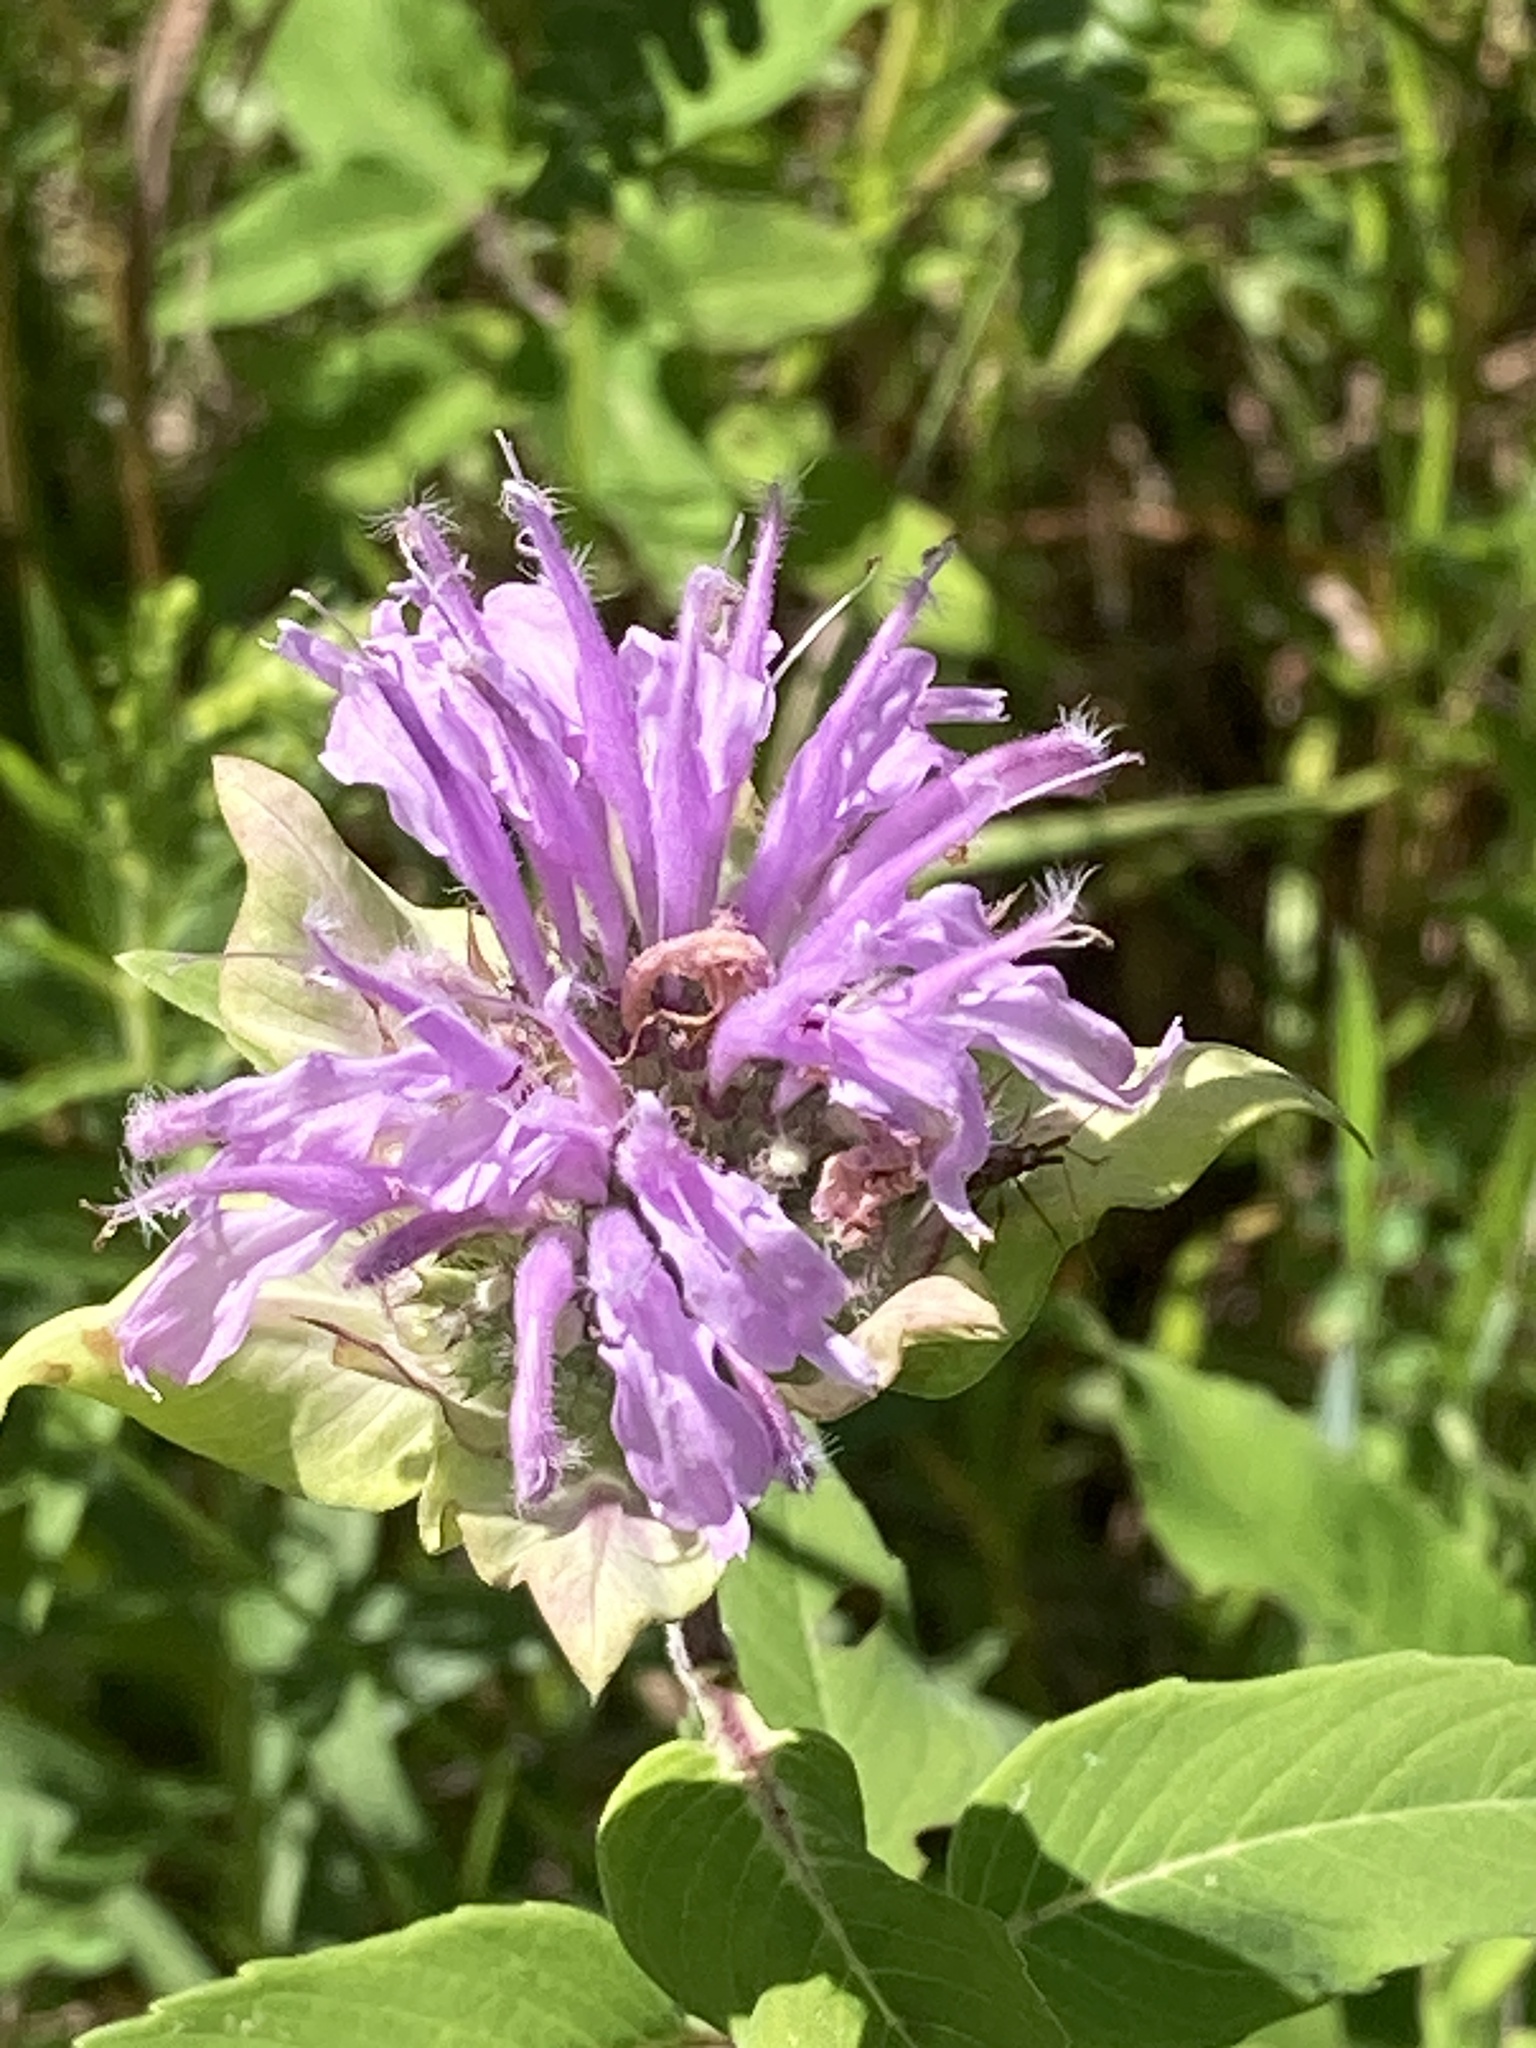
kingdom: Plantae
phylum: Tracheophyta
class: Magnoliopsida
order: Lamiales
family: Lamiaceae
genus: Monarda
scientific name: Monarda fistulosa
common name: Purple beebalm
